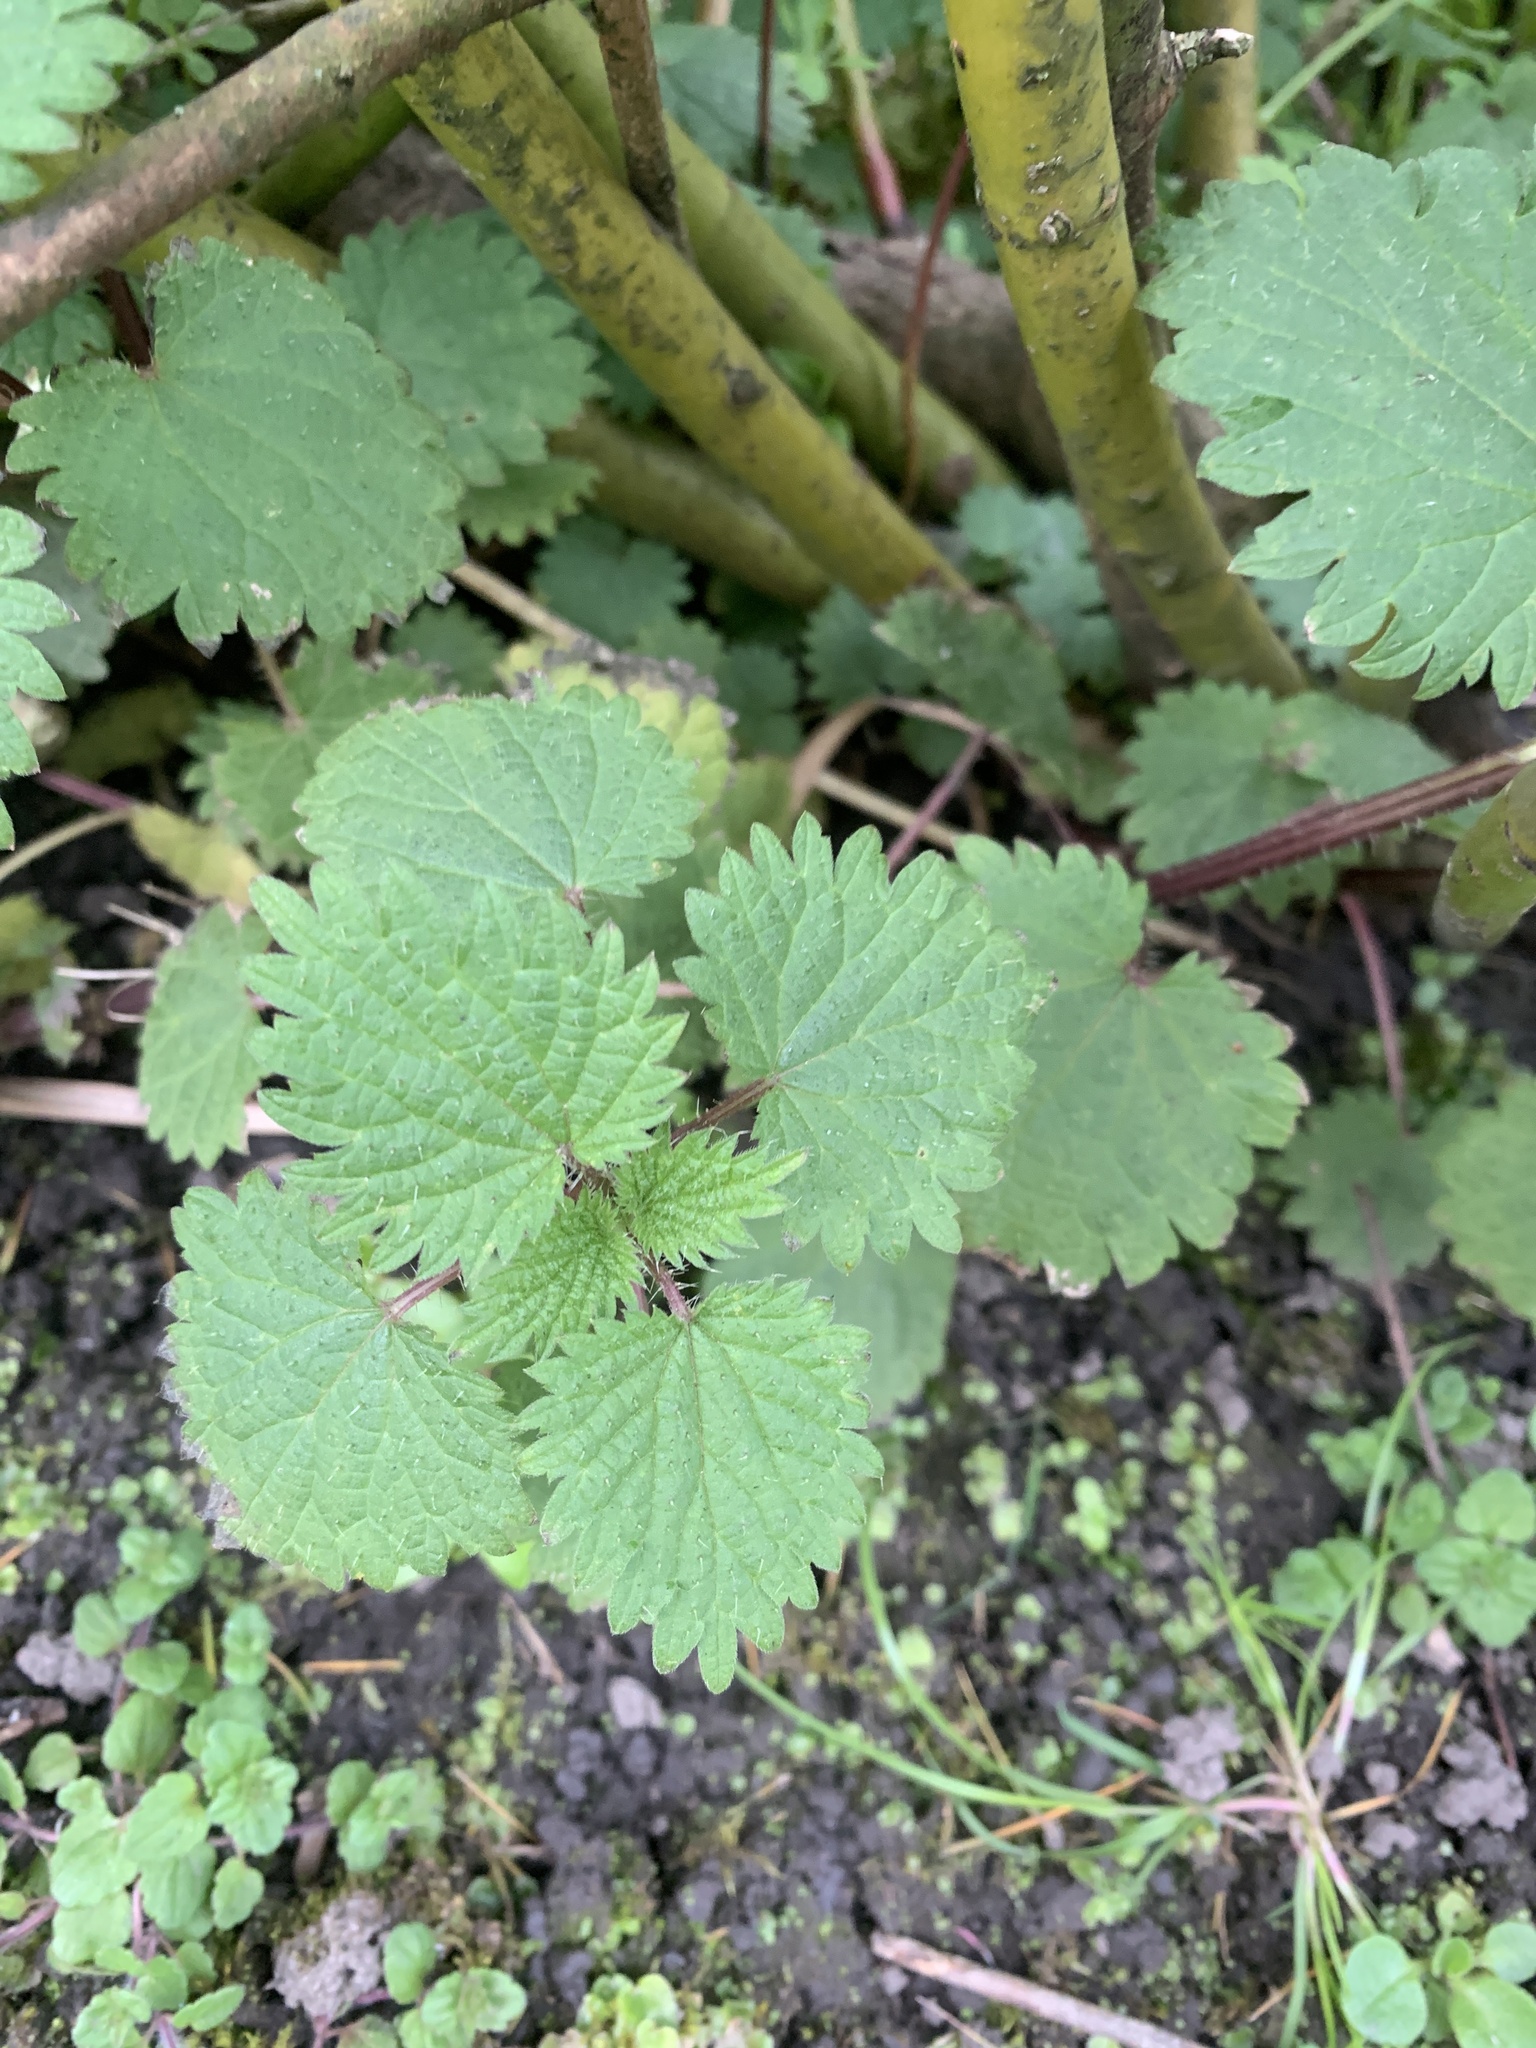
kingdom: Plantae
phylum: Tracheophyta
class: Magnoliopsida
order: Rosales
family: Urticaceae
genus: Urtica
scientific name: Urtica dioica
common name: Common nettle
